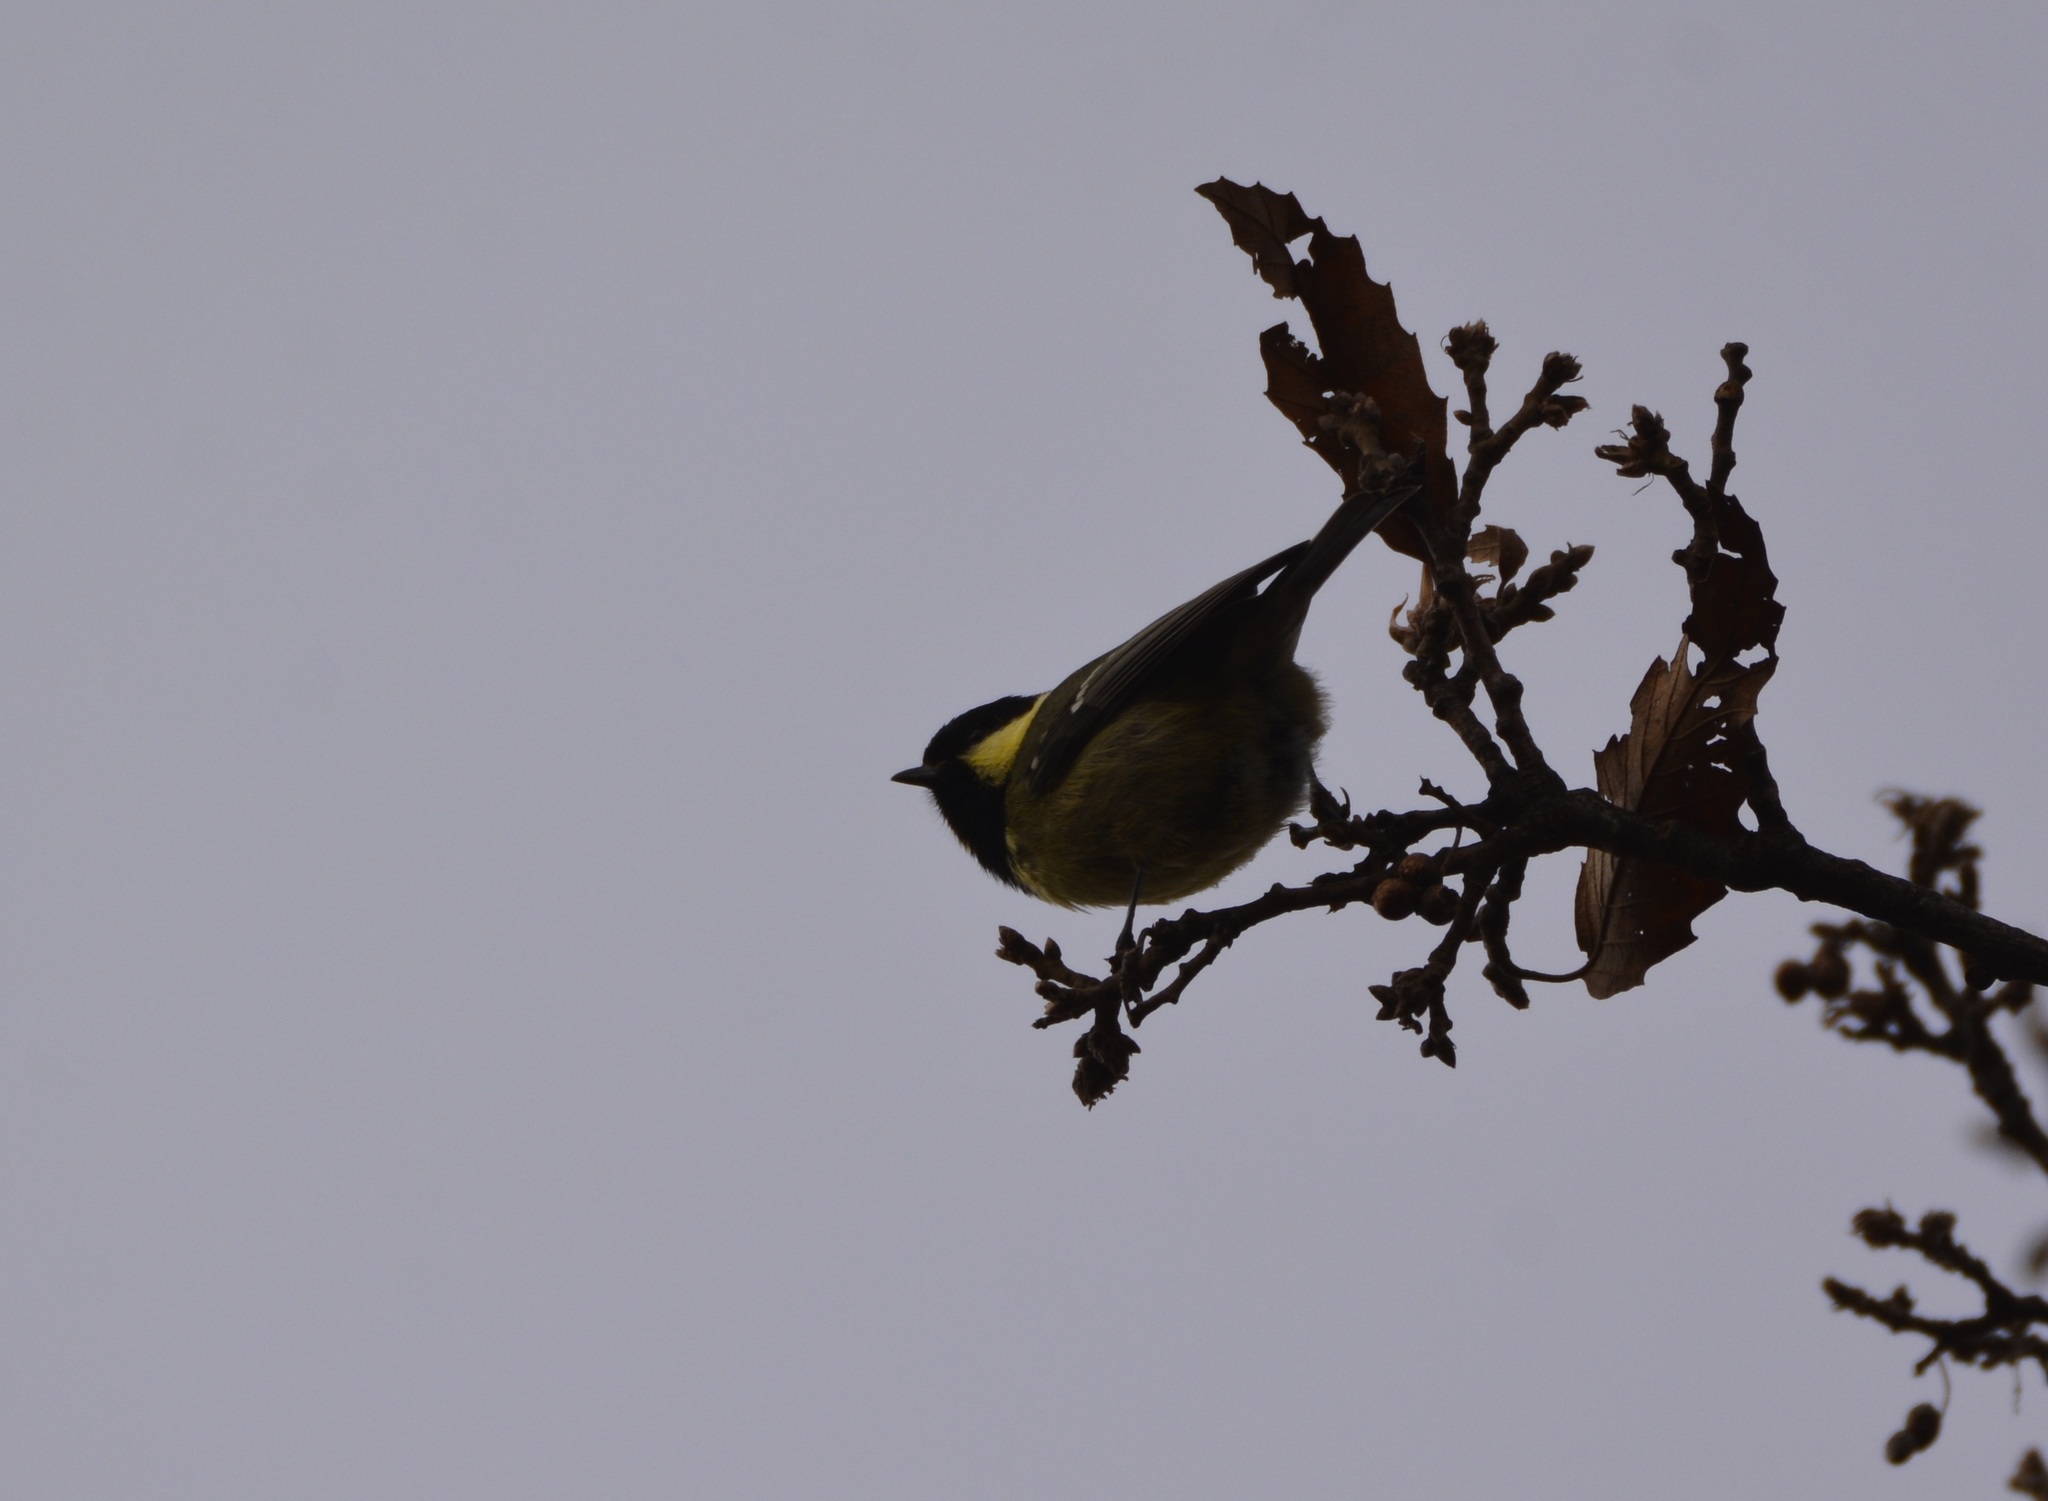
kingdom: Animalia
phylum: Chordata
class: Aves
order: Passeriformes
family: Paridae
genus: Periparus
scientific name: Periparus ater
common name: Coal tit
